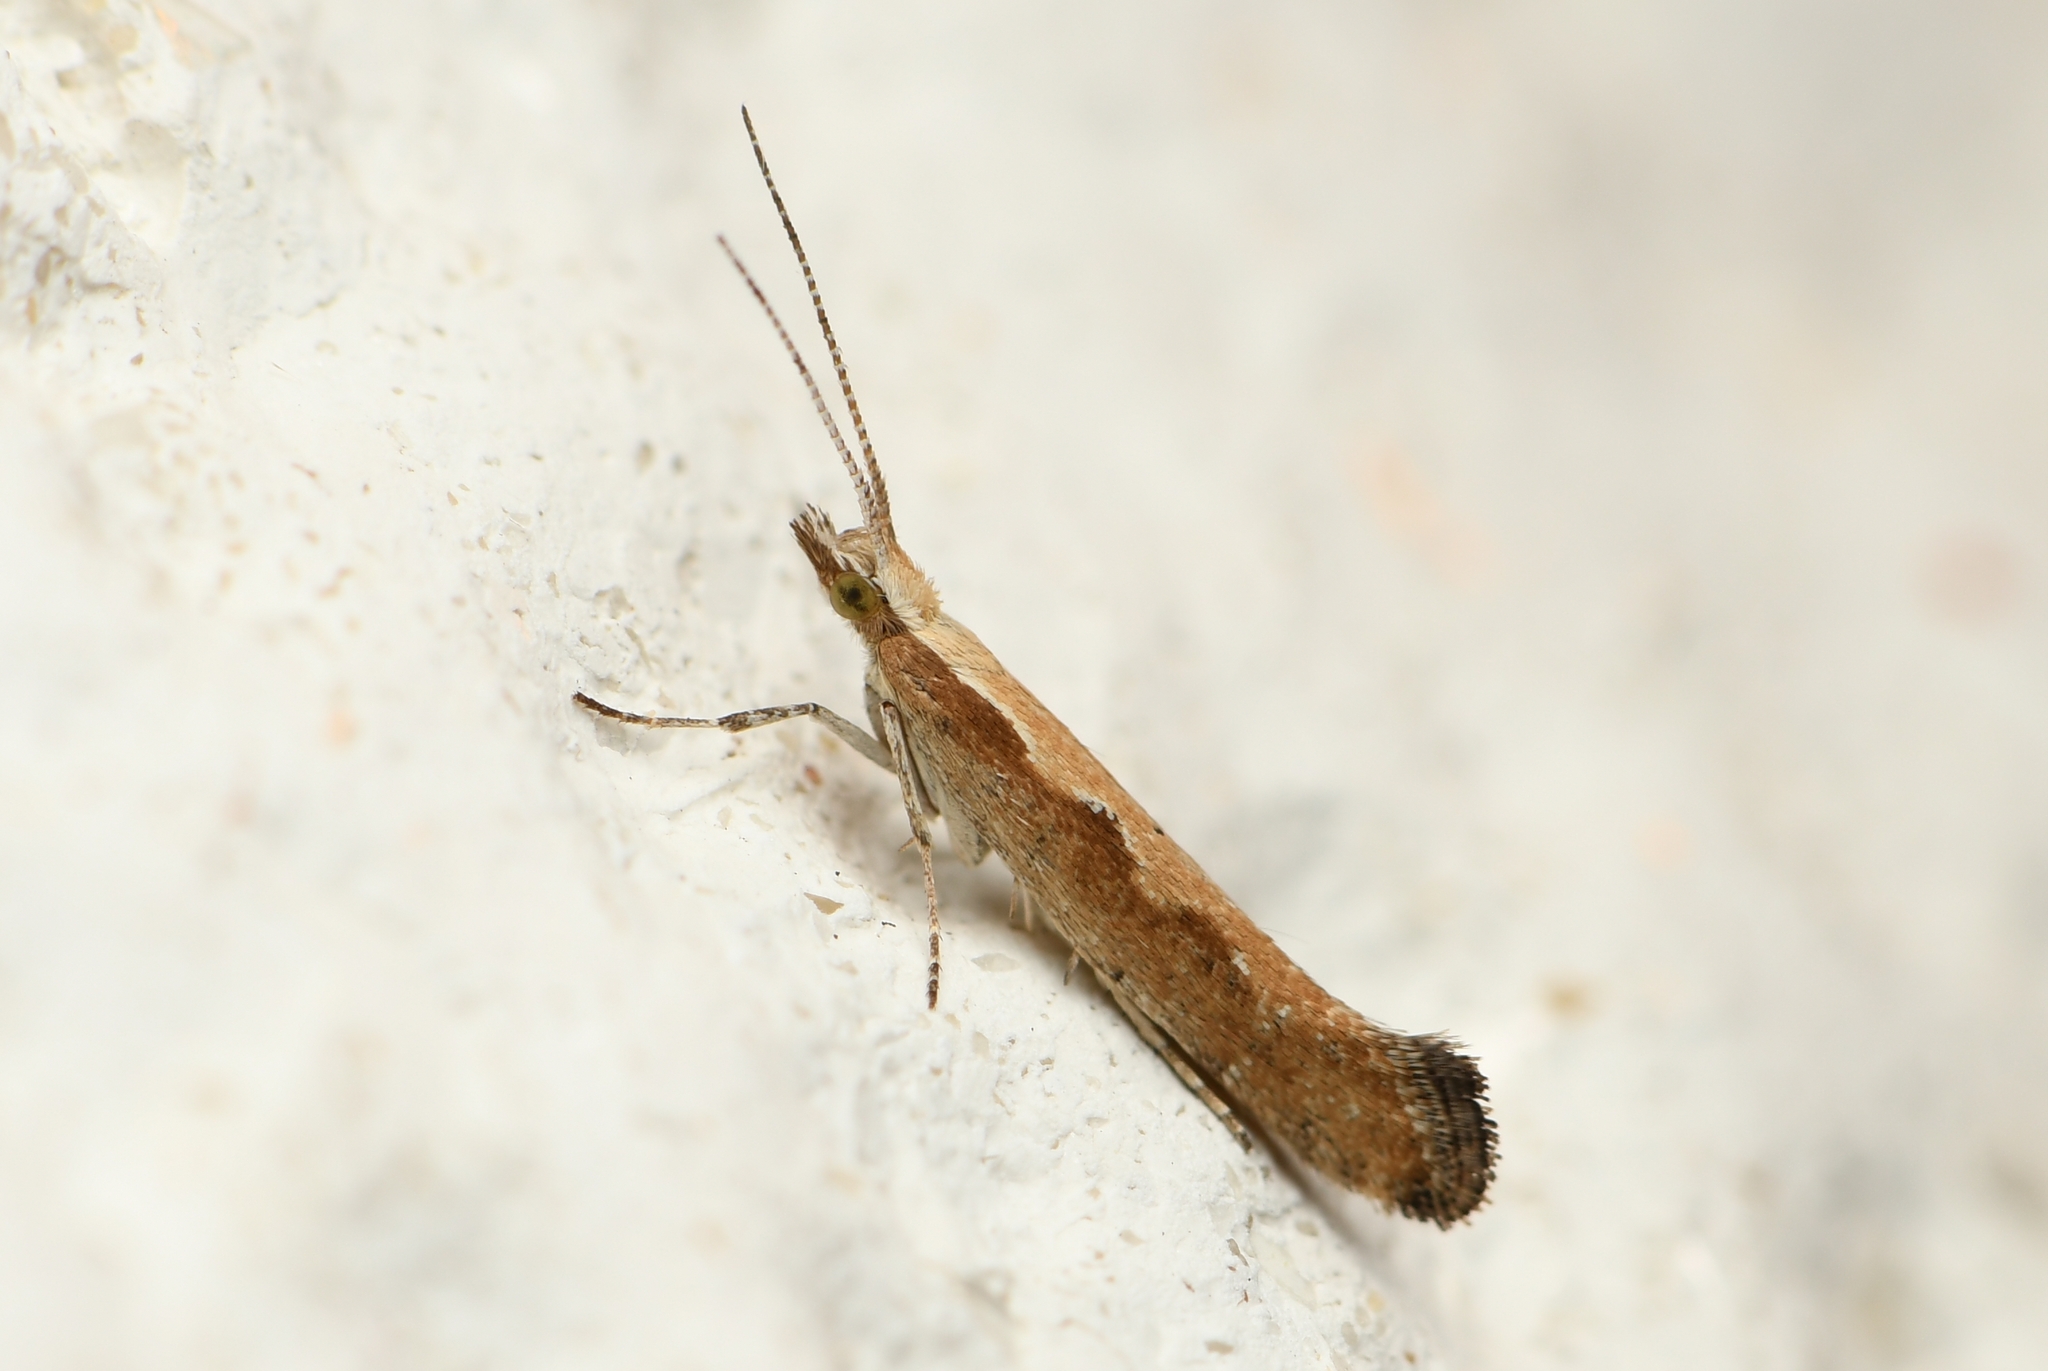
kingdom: Animalia
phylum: Arthropoda
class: Insecta
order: Lepidoptera
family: Plutellidae
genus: Plutella
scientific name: Plutella xylostella
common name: Diamond-back moth
